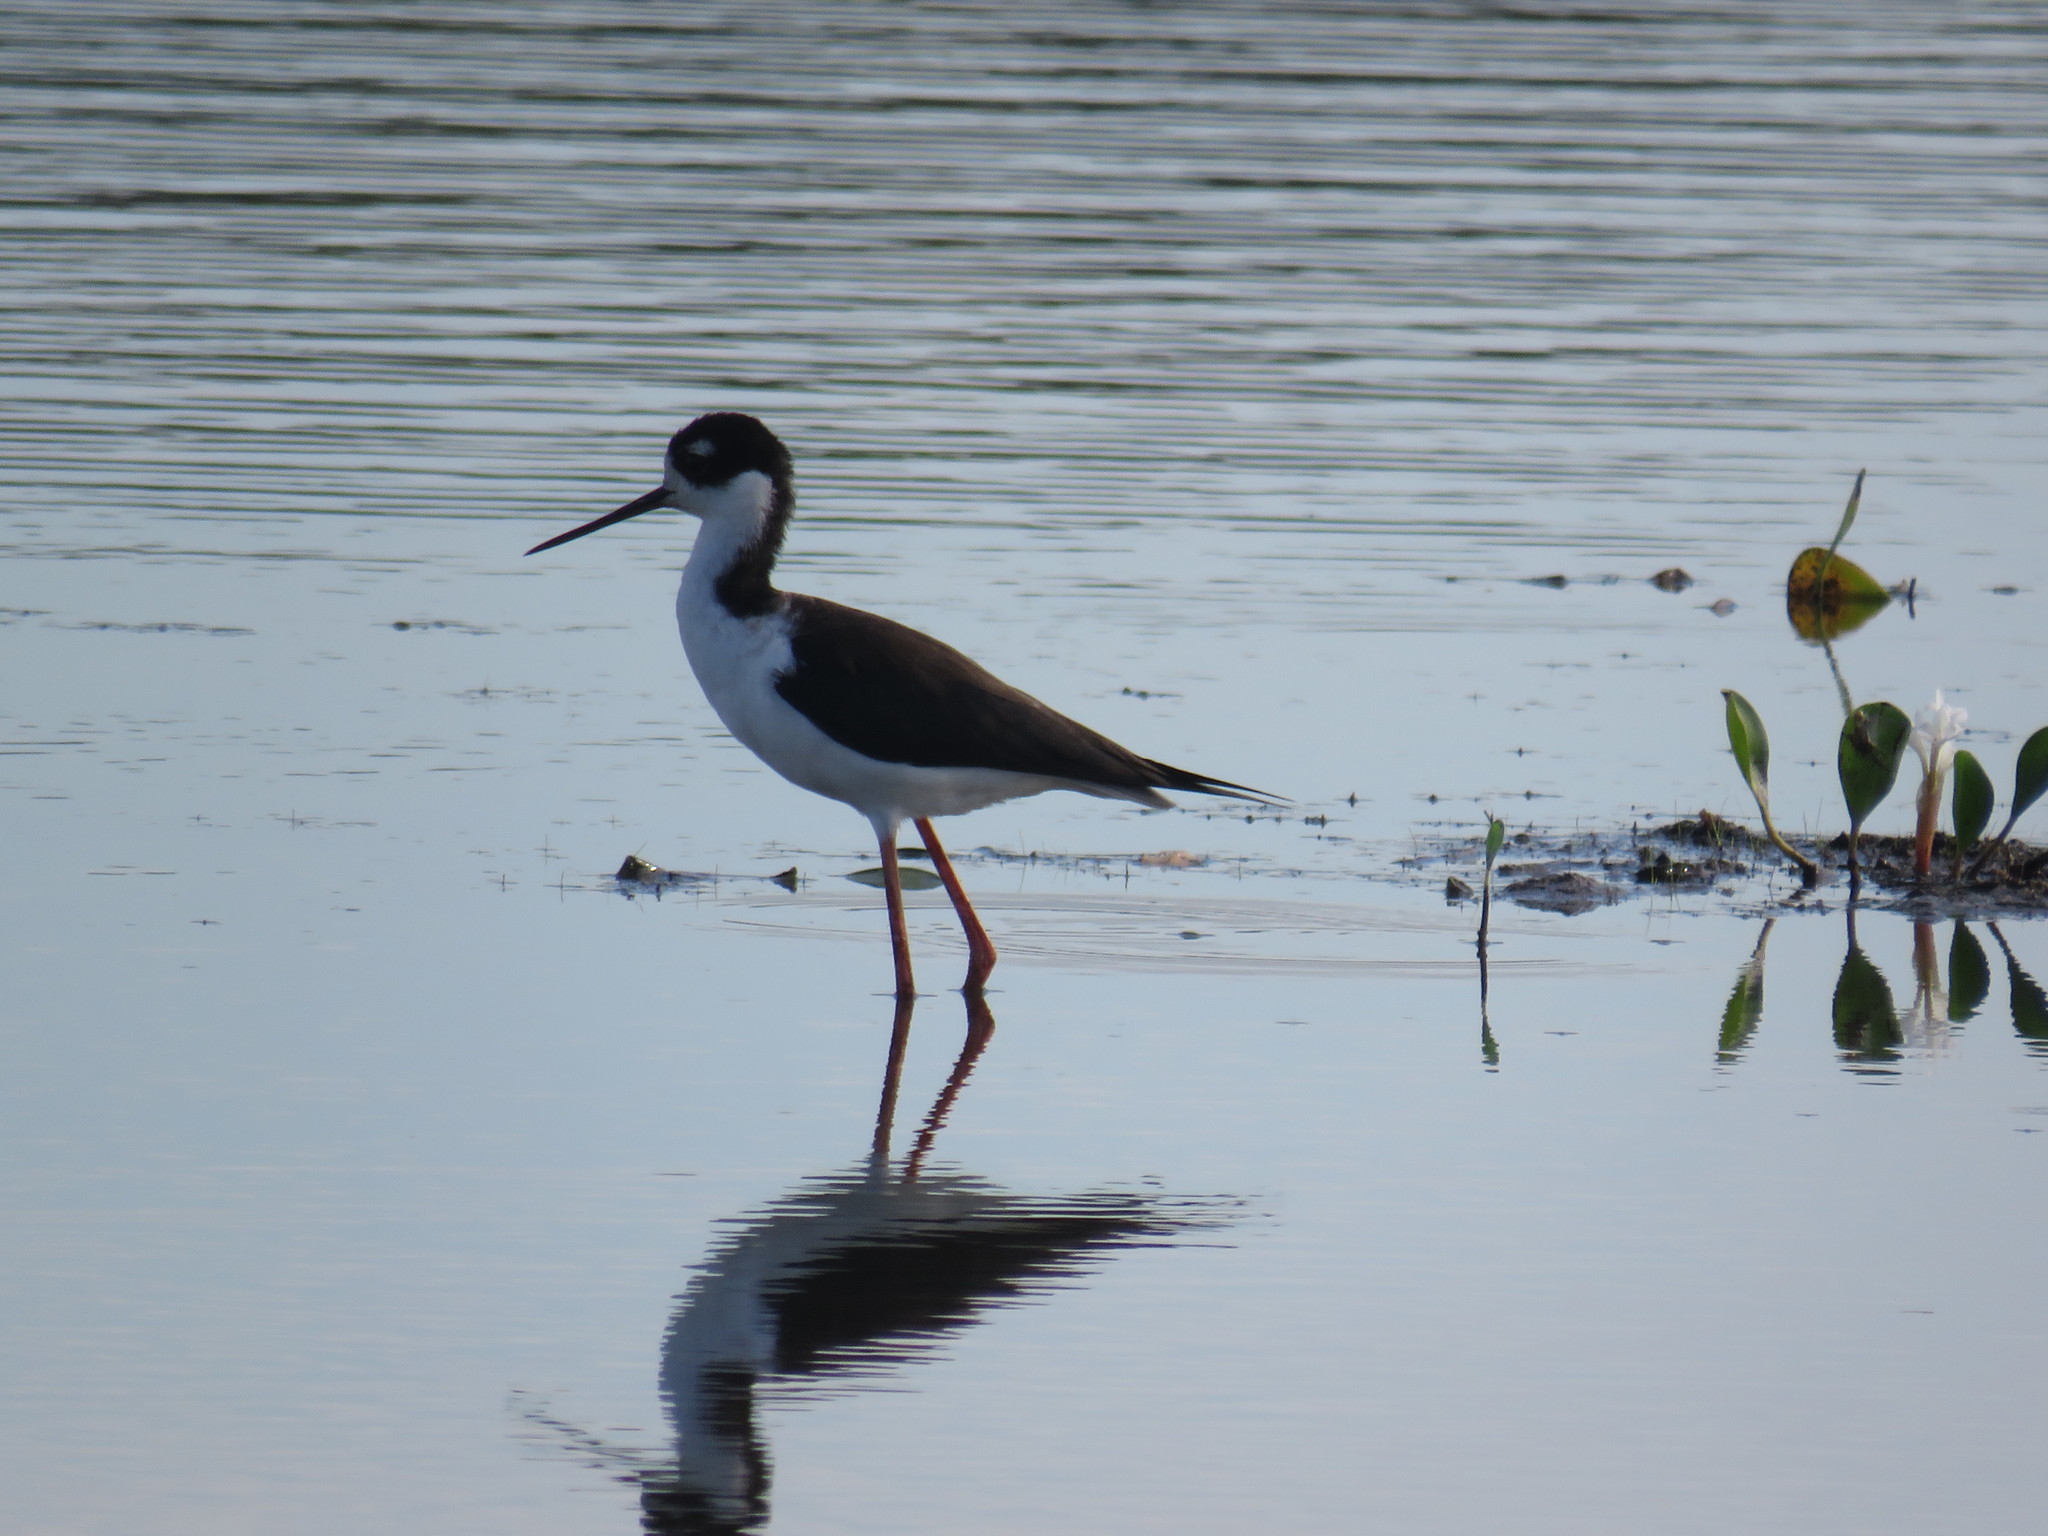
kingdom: Animalia
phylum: Chordata
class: Aves
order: Charadriiformes
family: Recurvirostridae
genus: Himantopus
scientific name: Himantopus mexicanus
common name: Black-necked stilt
